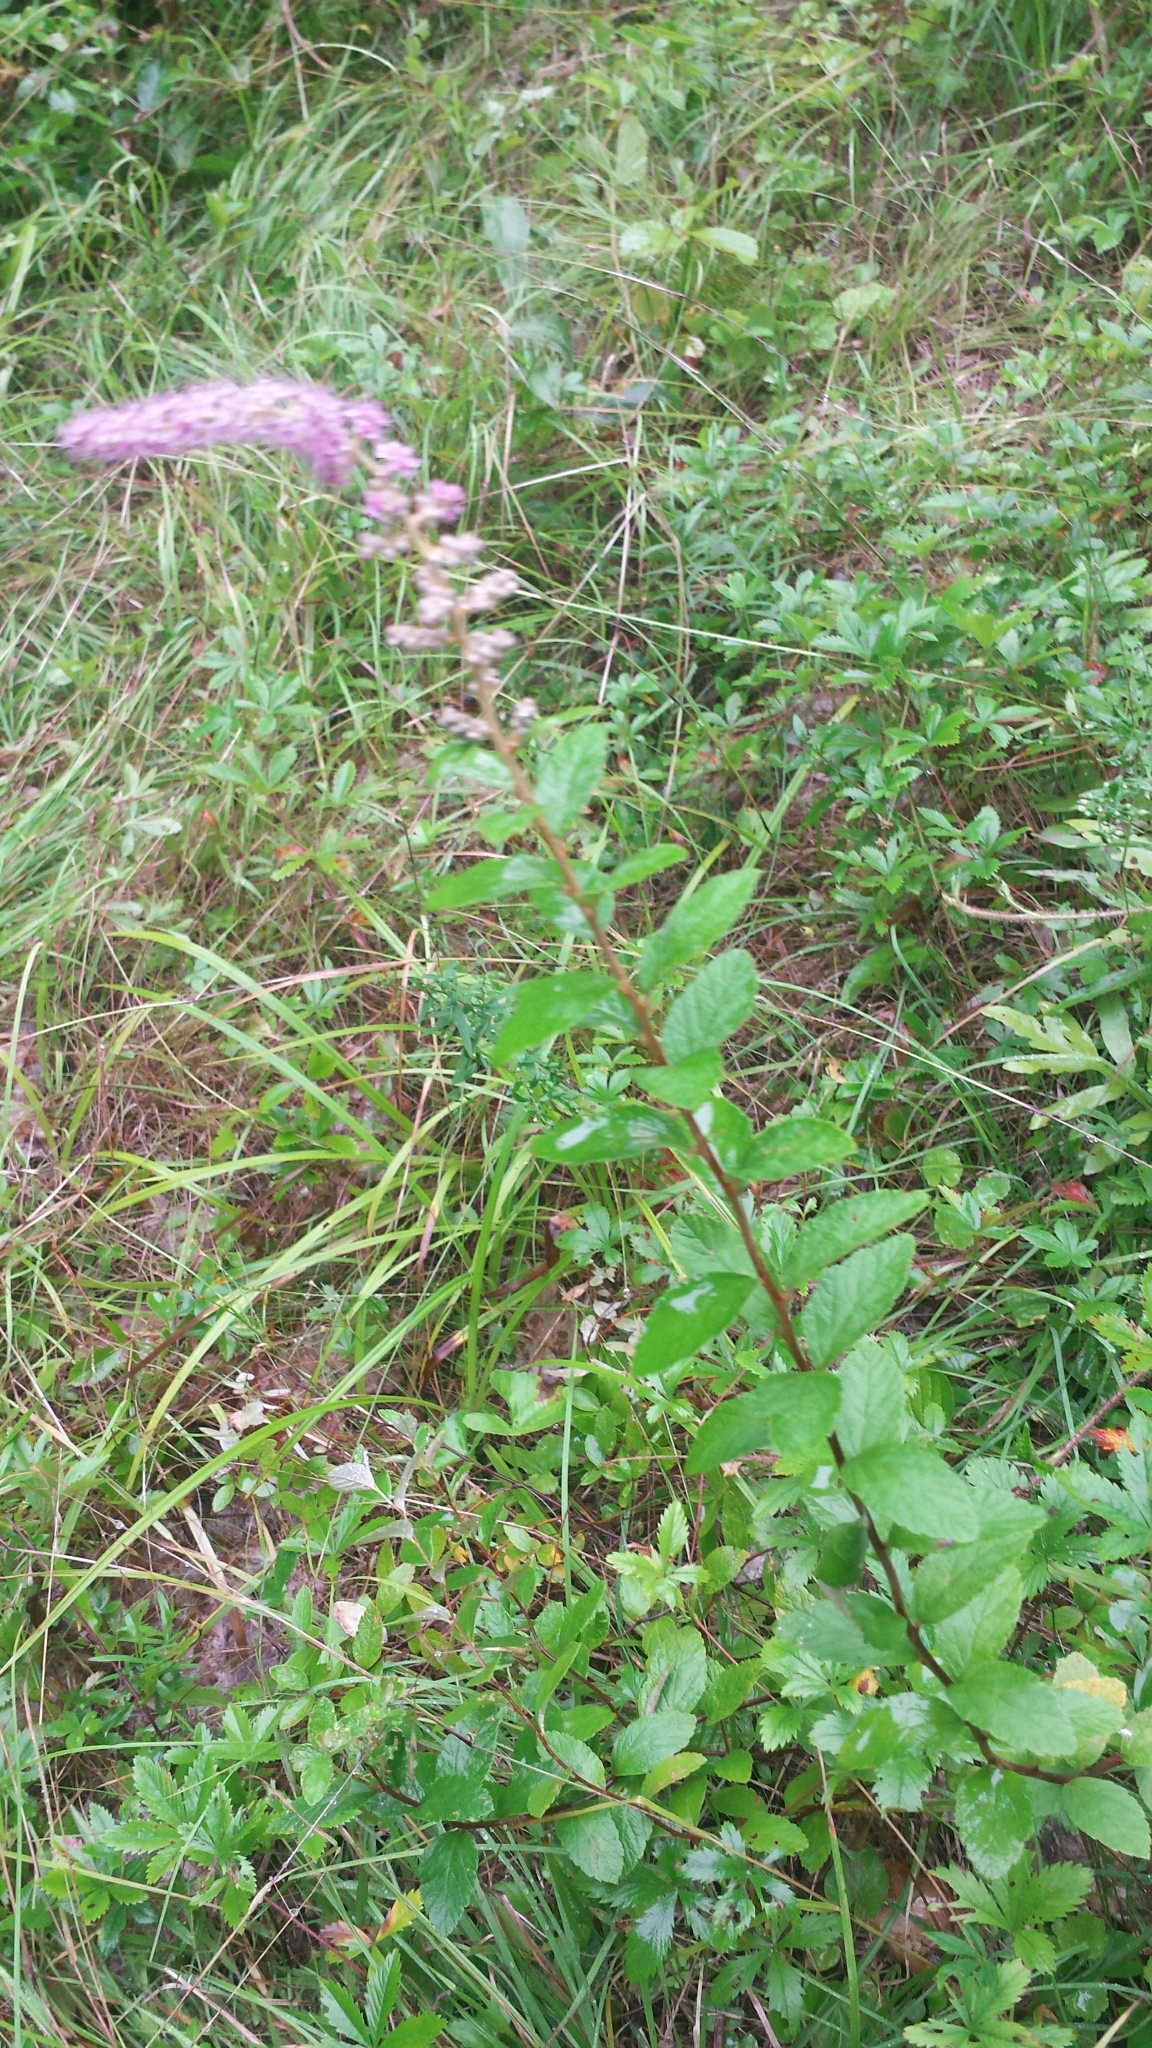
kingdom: Plantae
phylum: Tracheophyta
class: Magnoliopsida
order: Rosales
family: Rosaceae
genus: Spiraea
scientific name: Spiraea tomentosa
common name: Hardhack
